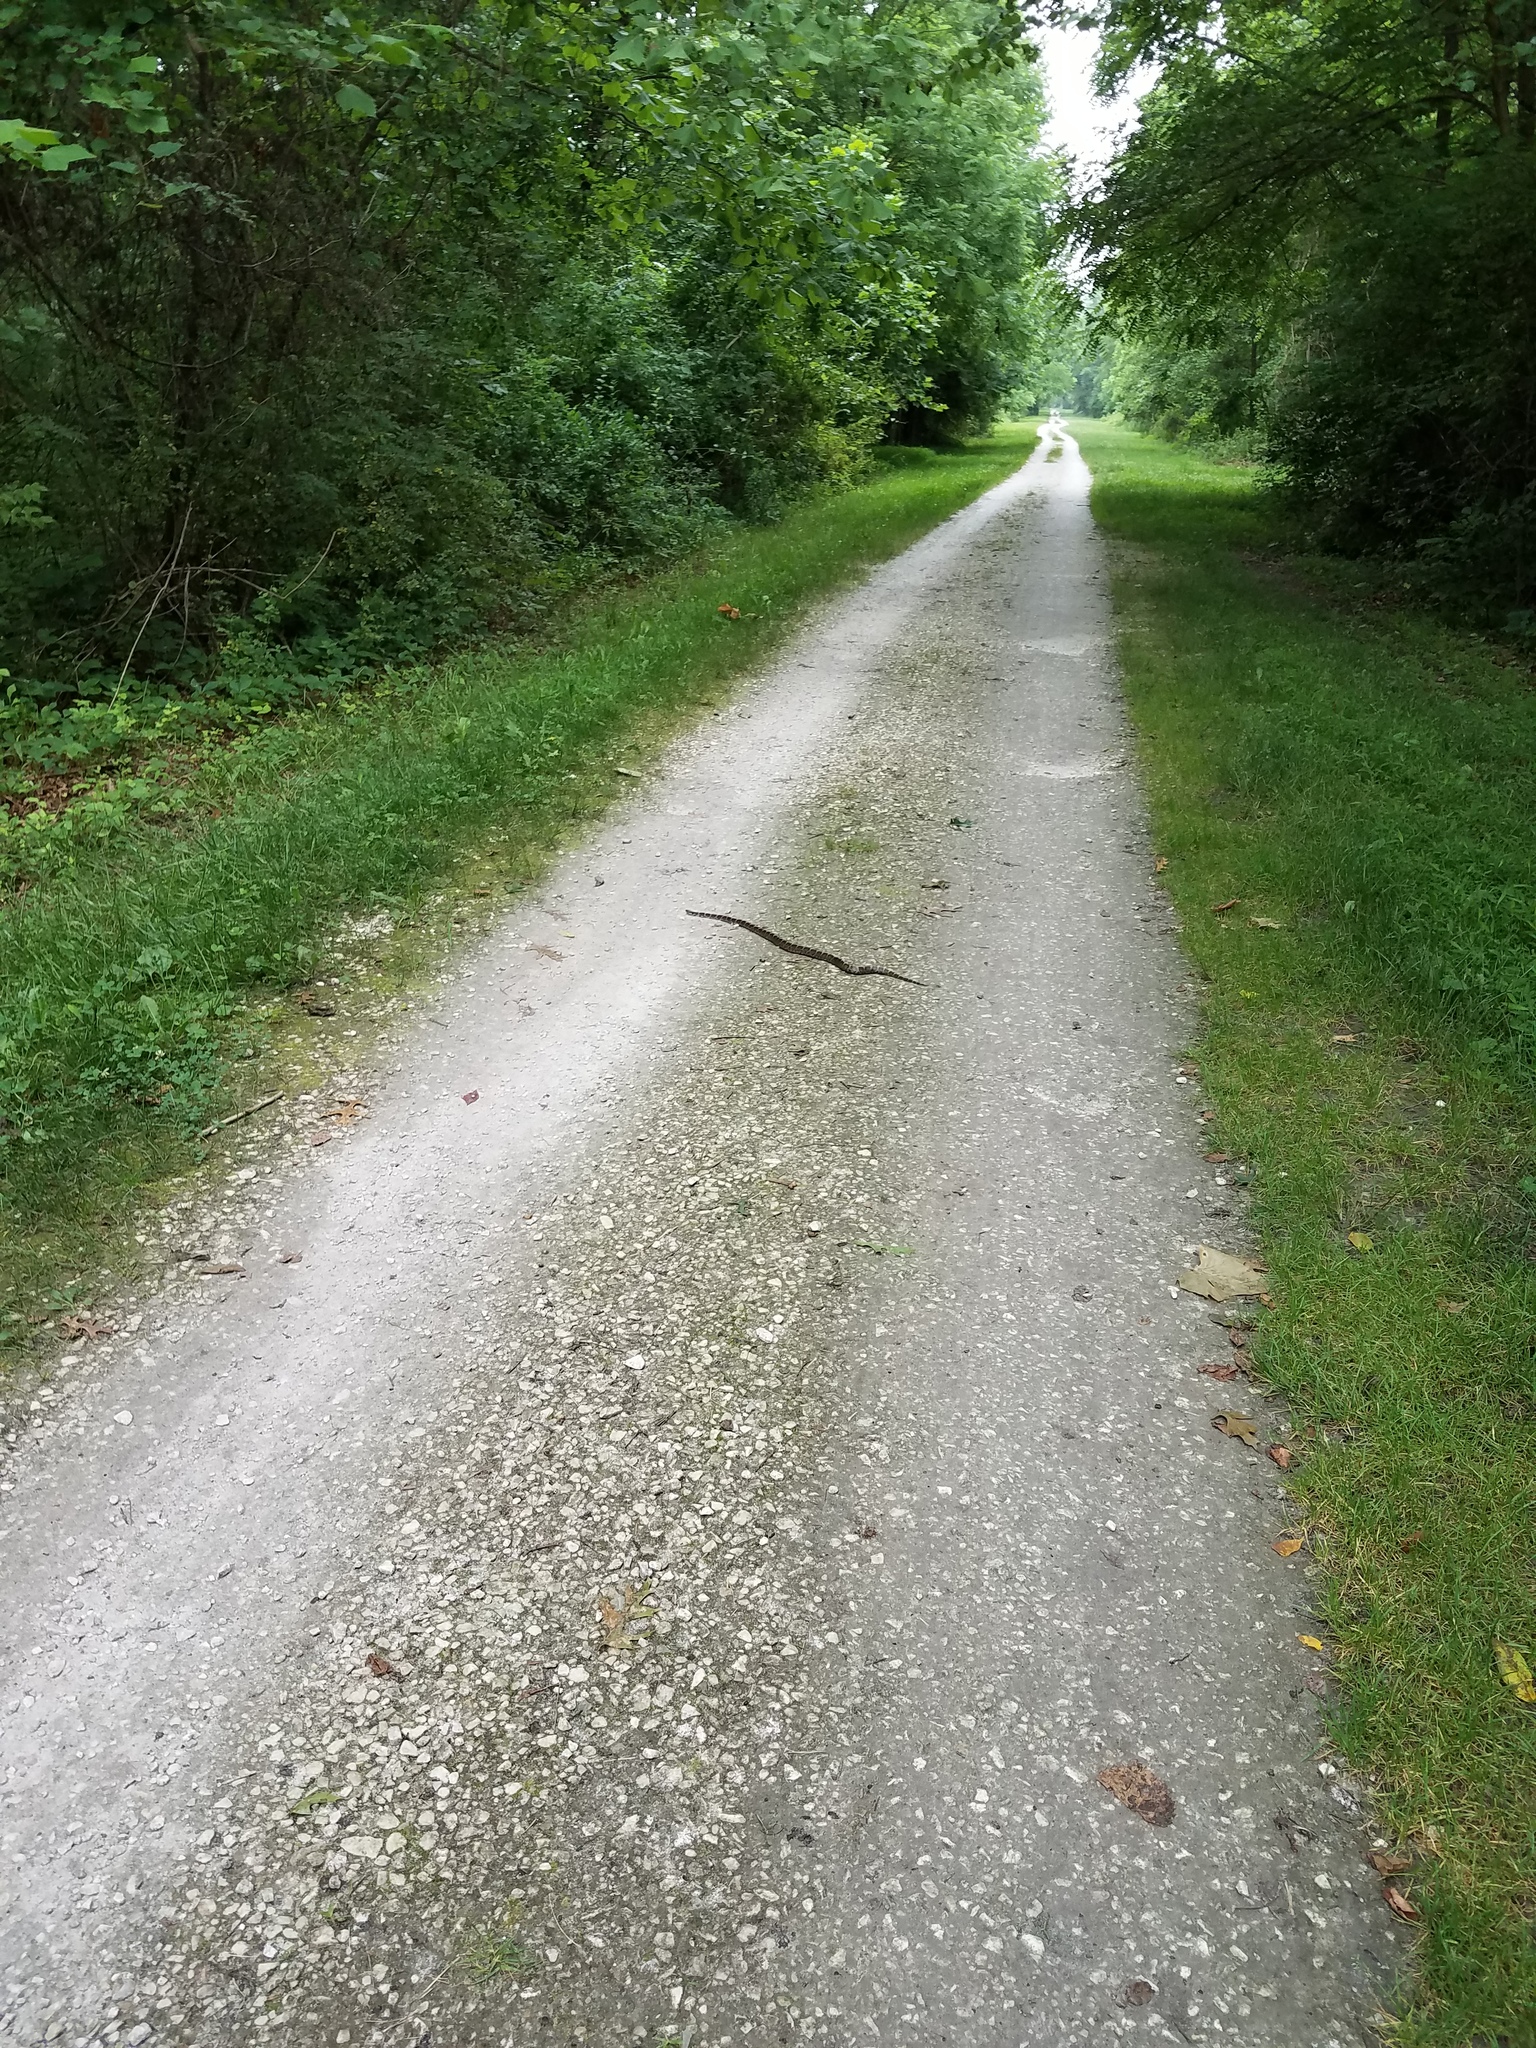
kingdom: Animalia
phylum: Chordata
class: Squamata
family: Colubridae
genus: Lampropeltis
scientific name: Lampropeltis triangulum
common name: Eastern milksnake
